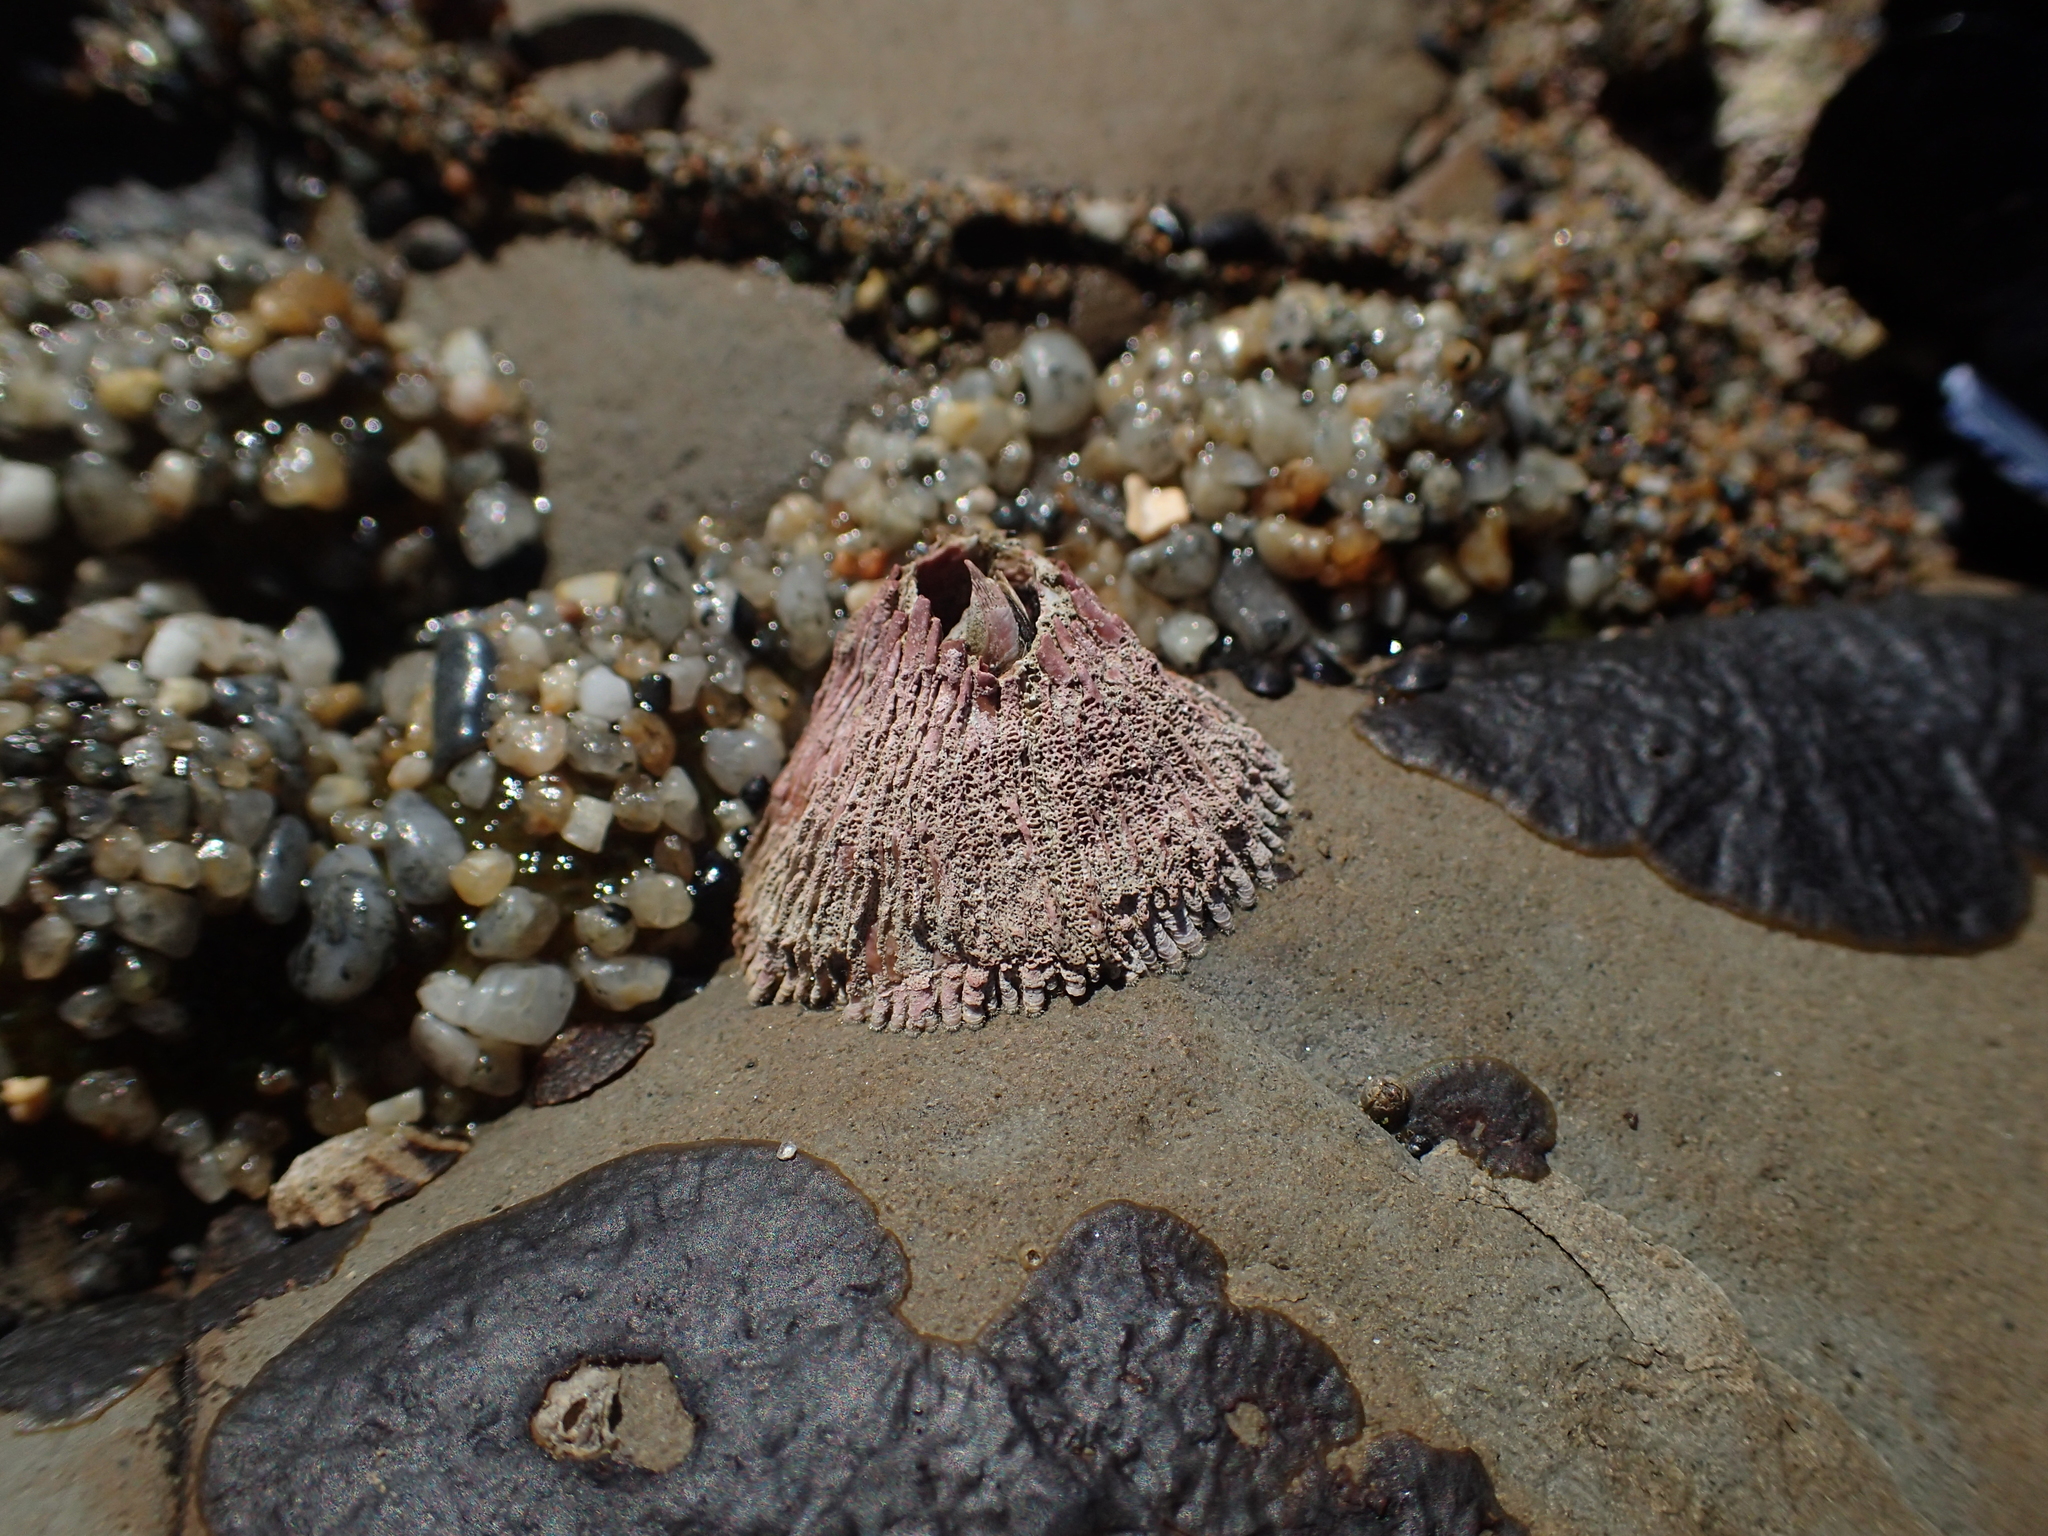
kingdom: Animalia
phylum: Arthropoda
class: Maxillopoda
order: Sessilia
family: Tetraclitidae
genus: Tetraclita
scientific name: Tetraclita rubescens
